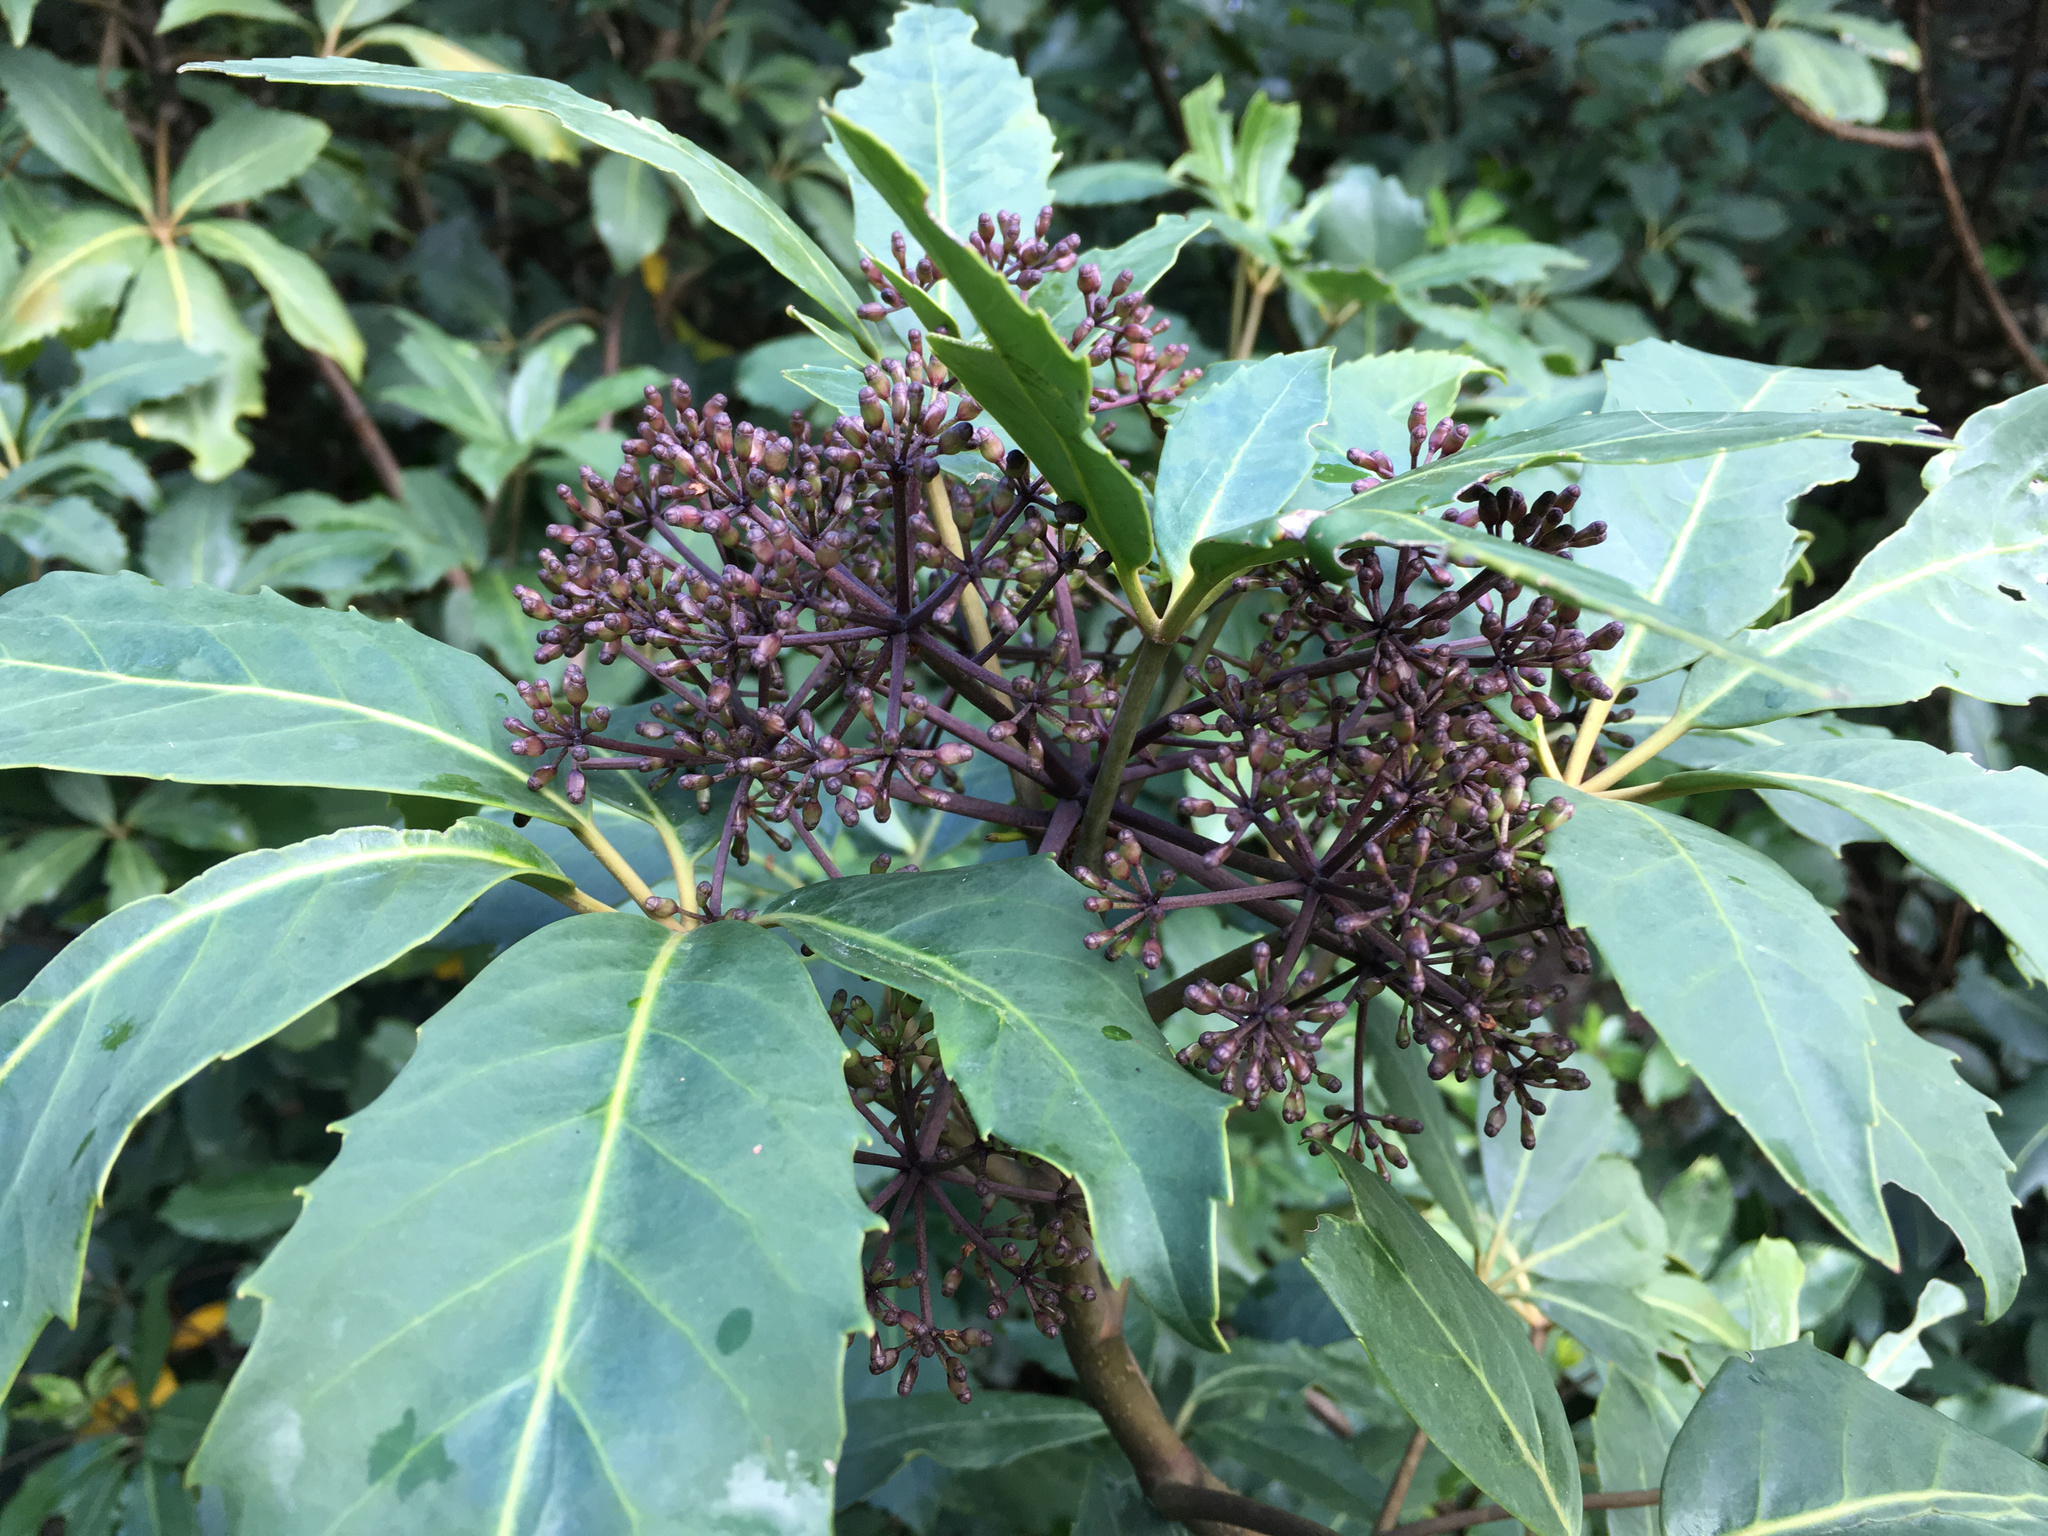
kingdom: Plantae
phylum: Tracheophyta
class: Magnoliopsida
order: Apiales
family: Araliaceae
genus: Neopanax
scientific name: Neopanax arboreus
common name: Five-fingers
